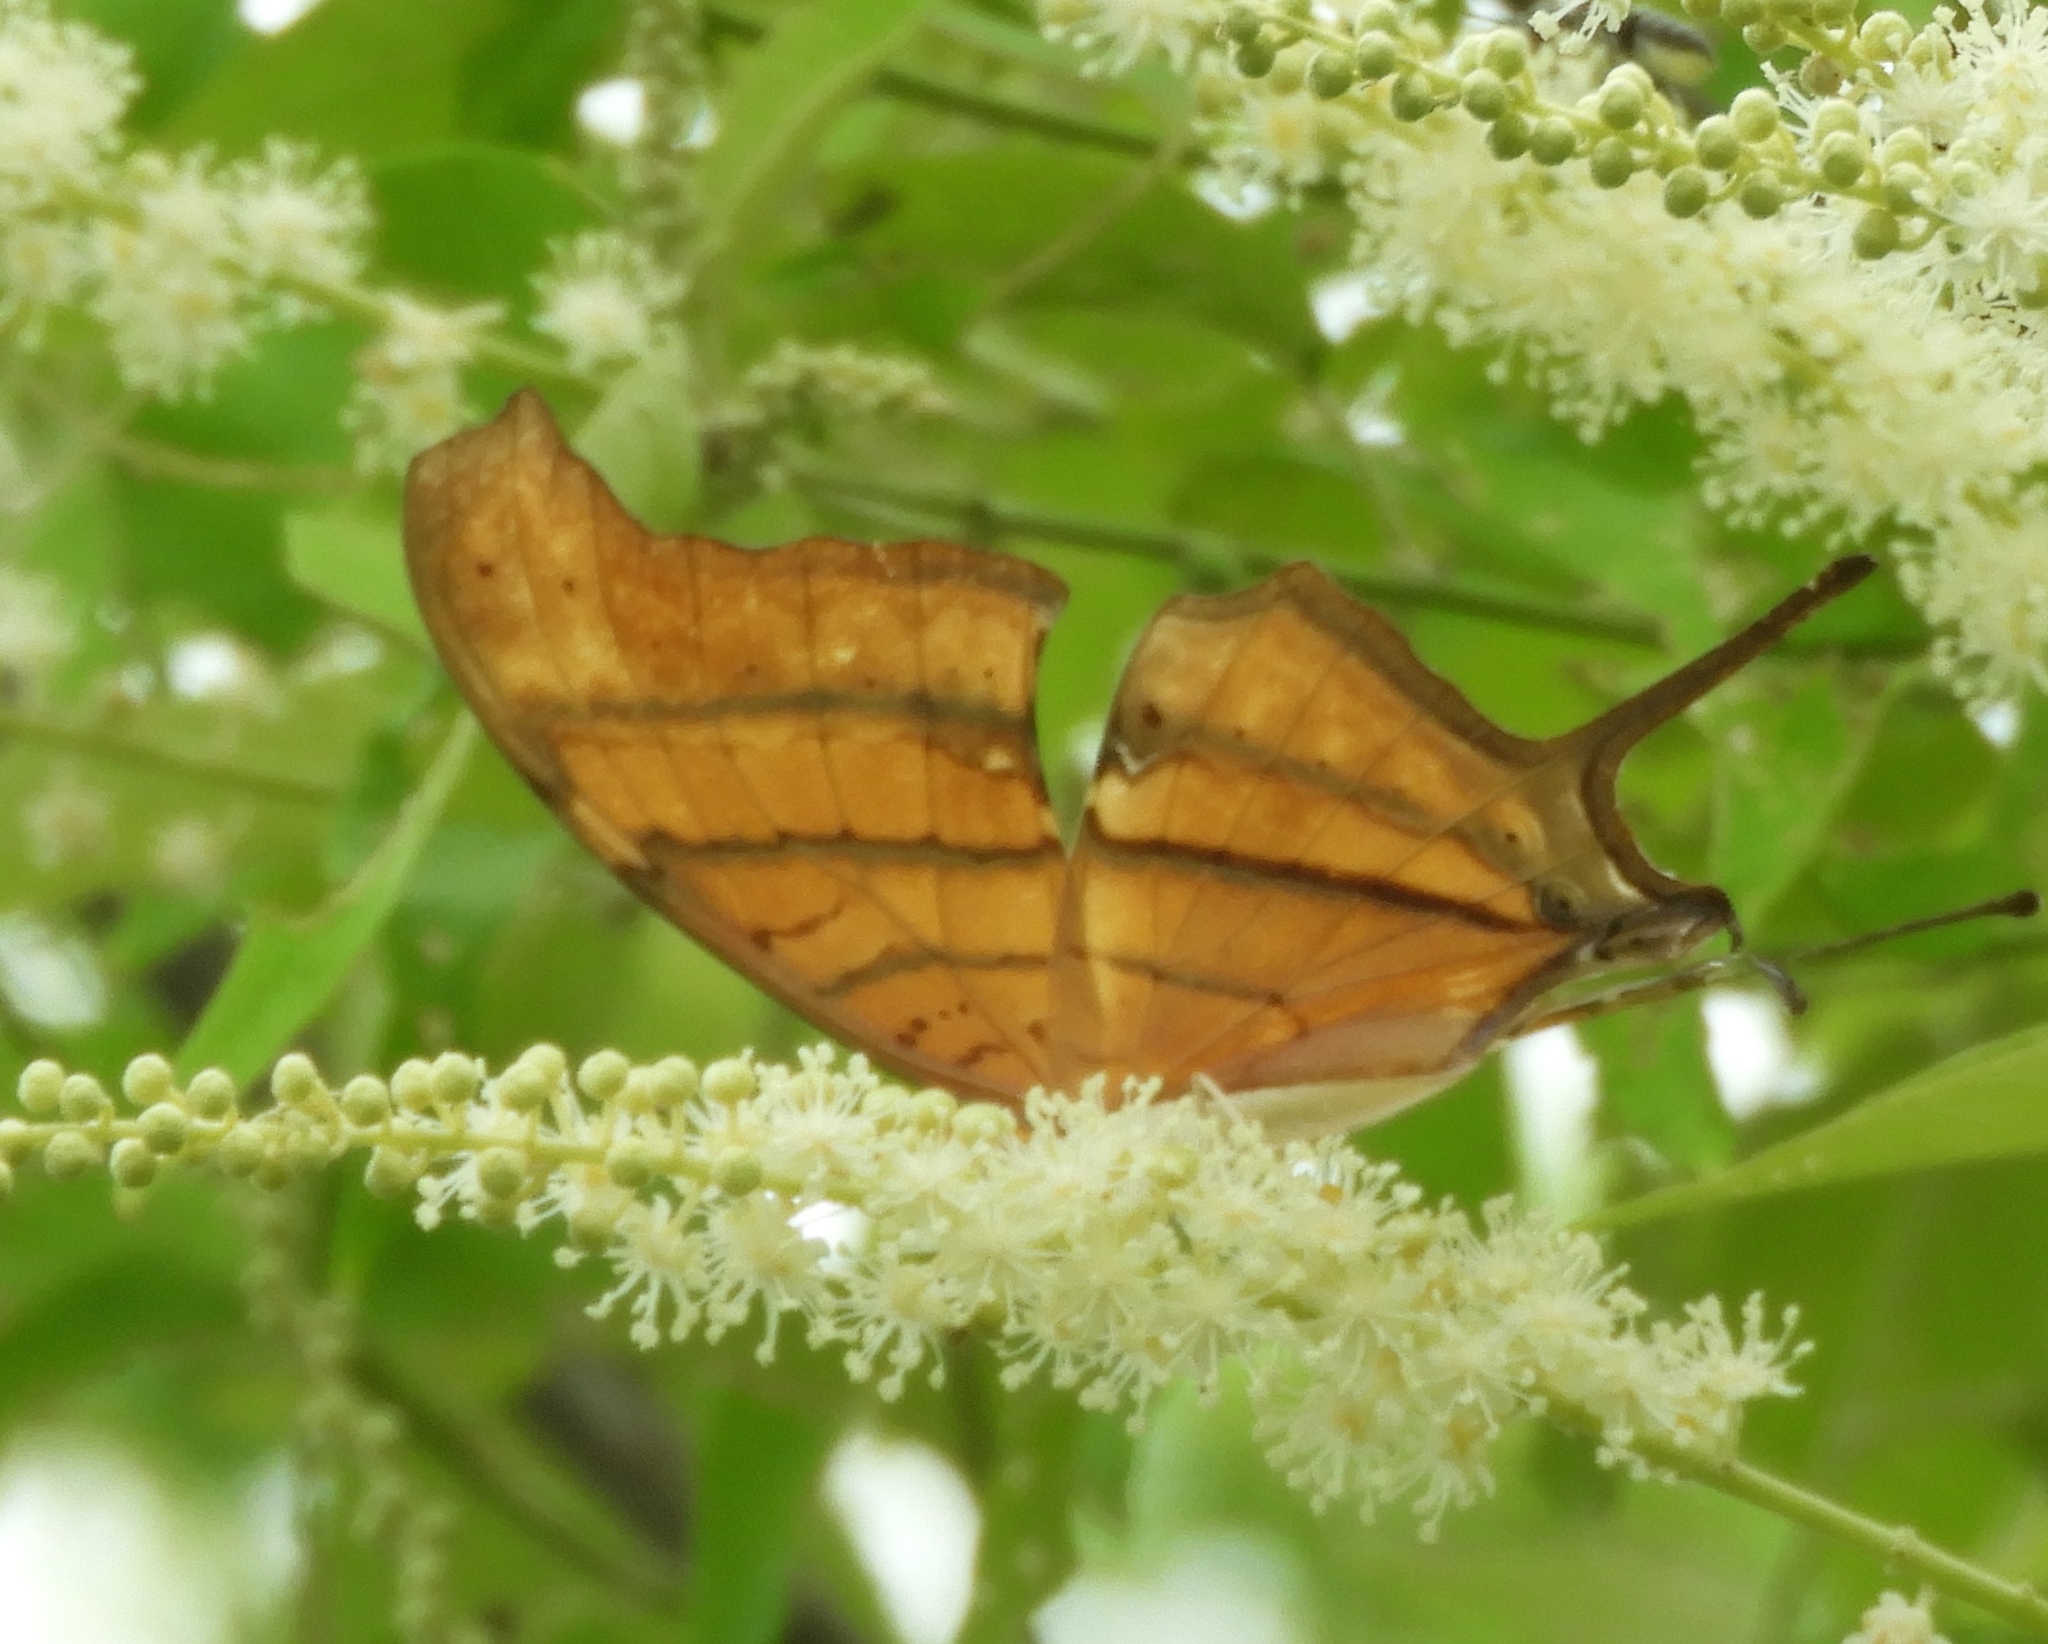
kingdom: Animalia
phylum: Arthropoda
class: Insecta
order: Lepidoptera
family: Nymphalidae
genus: Marpesia
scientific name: Marpesia petreus
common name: Red dagger wing
